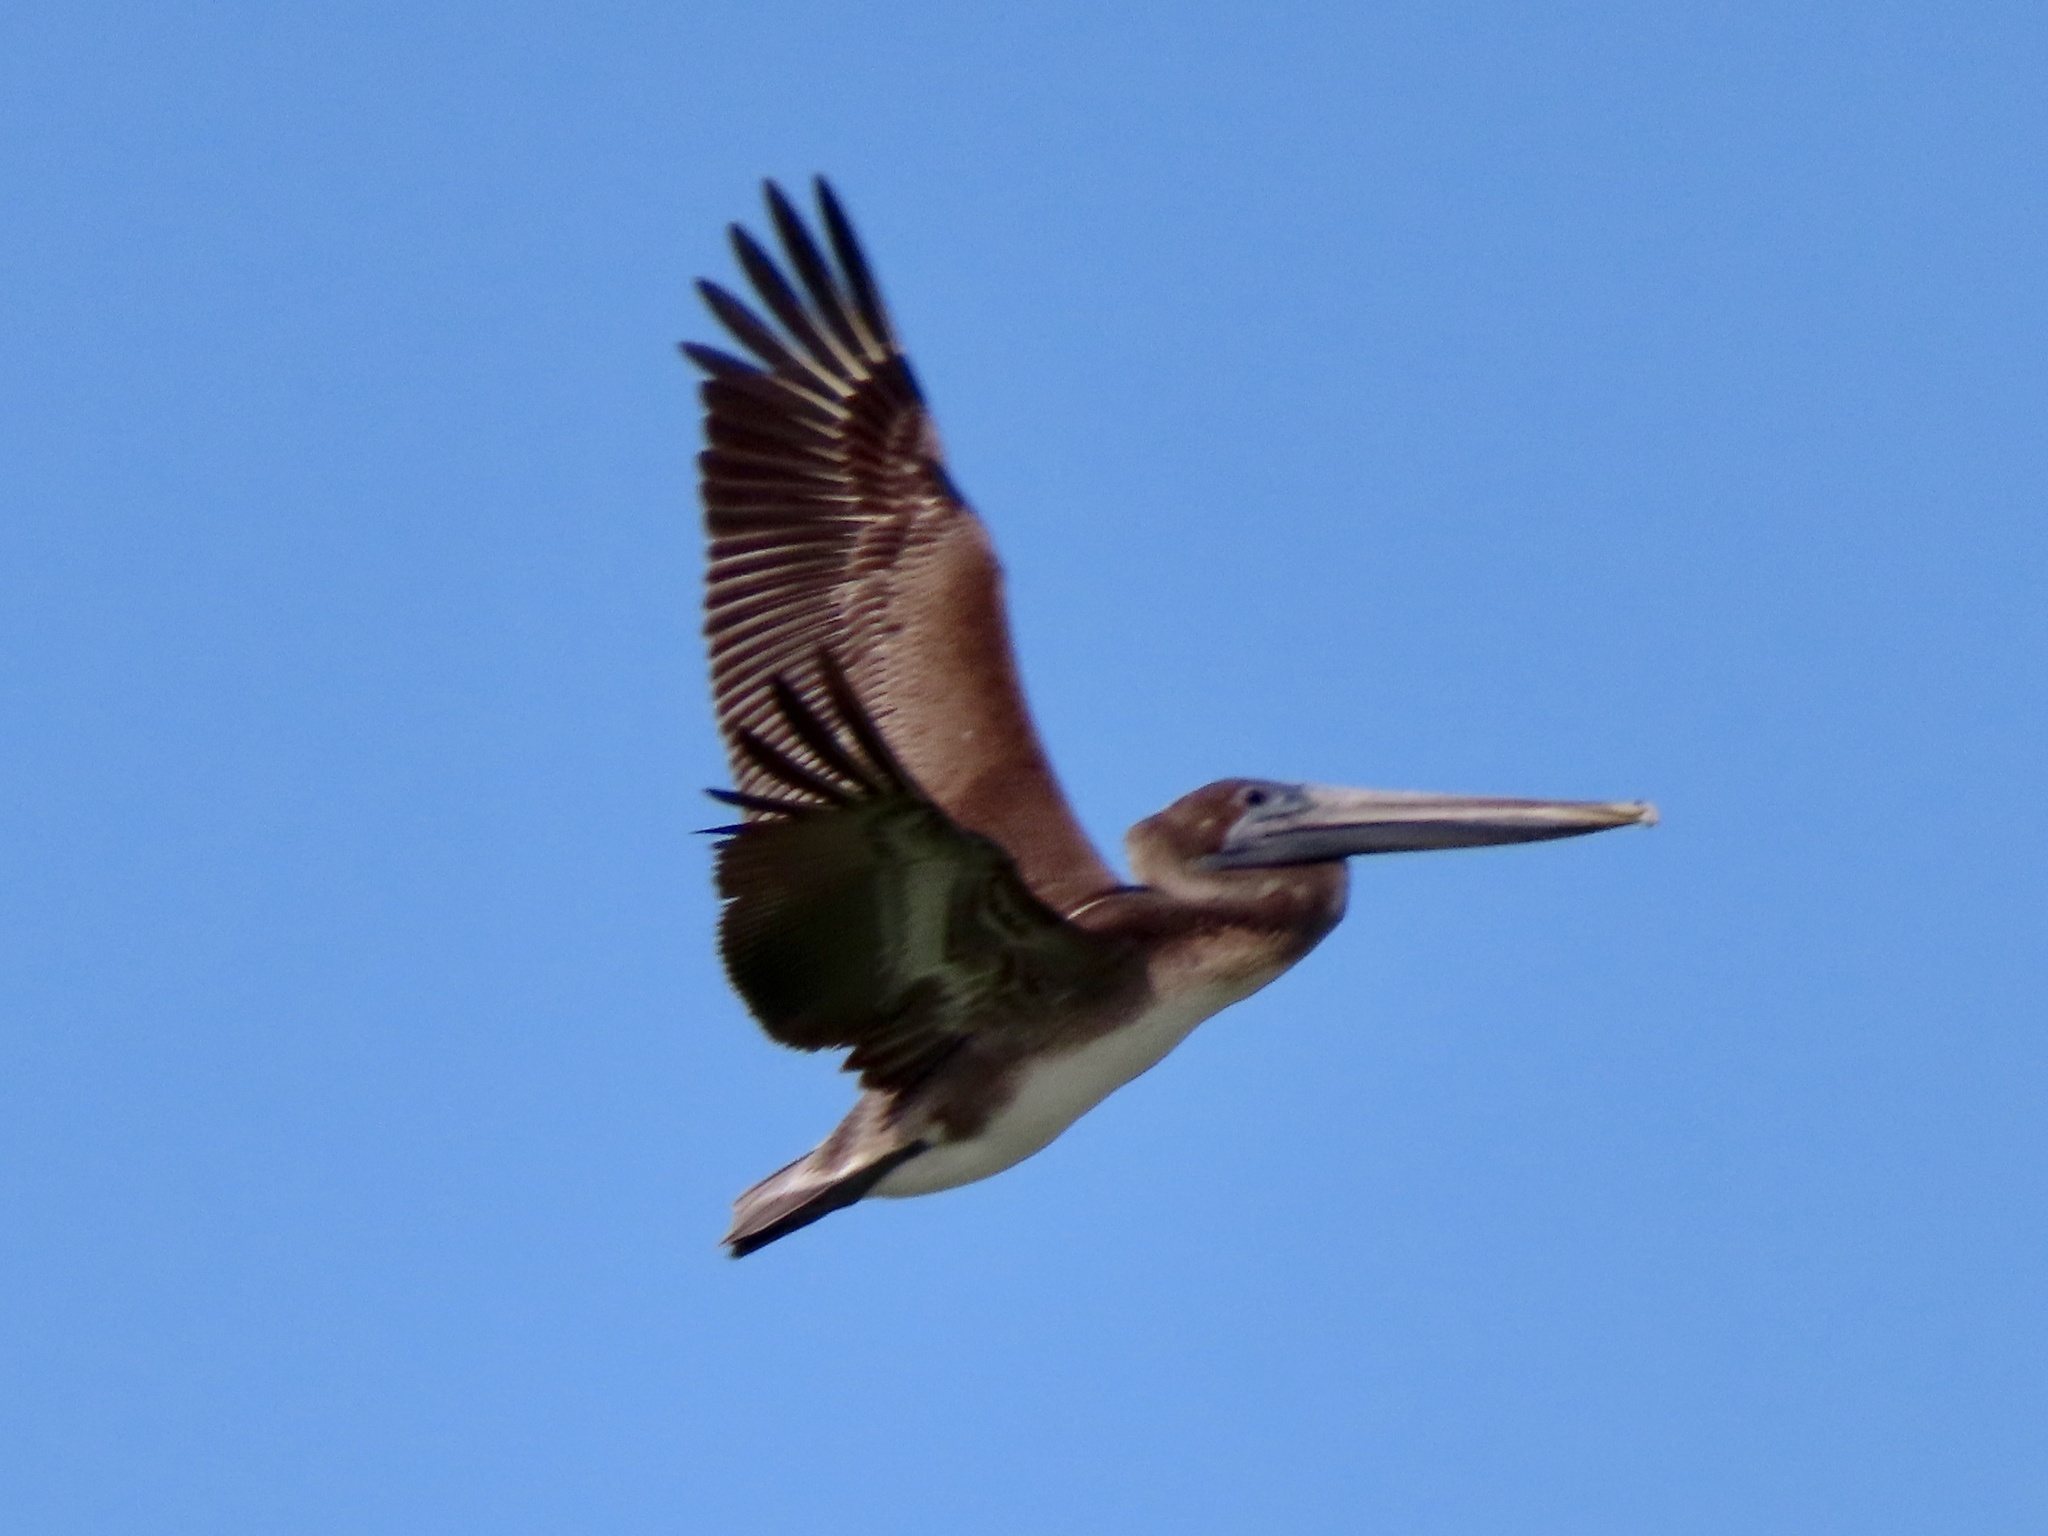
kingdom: Animalia
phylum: Chordata
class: Aves
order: Pelecaniformes
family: Pelecanidae
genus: Pelecanus
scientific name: Pelecanus occidentalis
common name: Brown pelican
